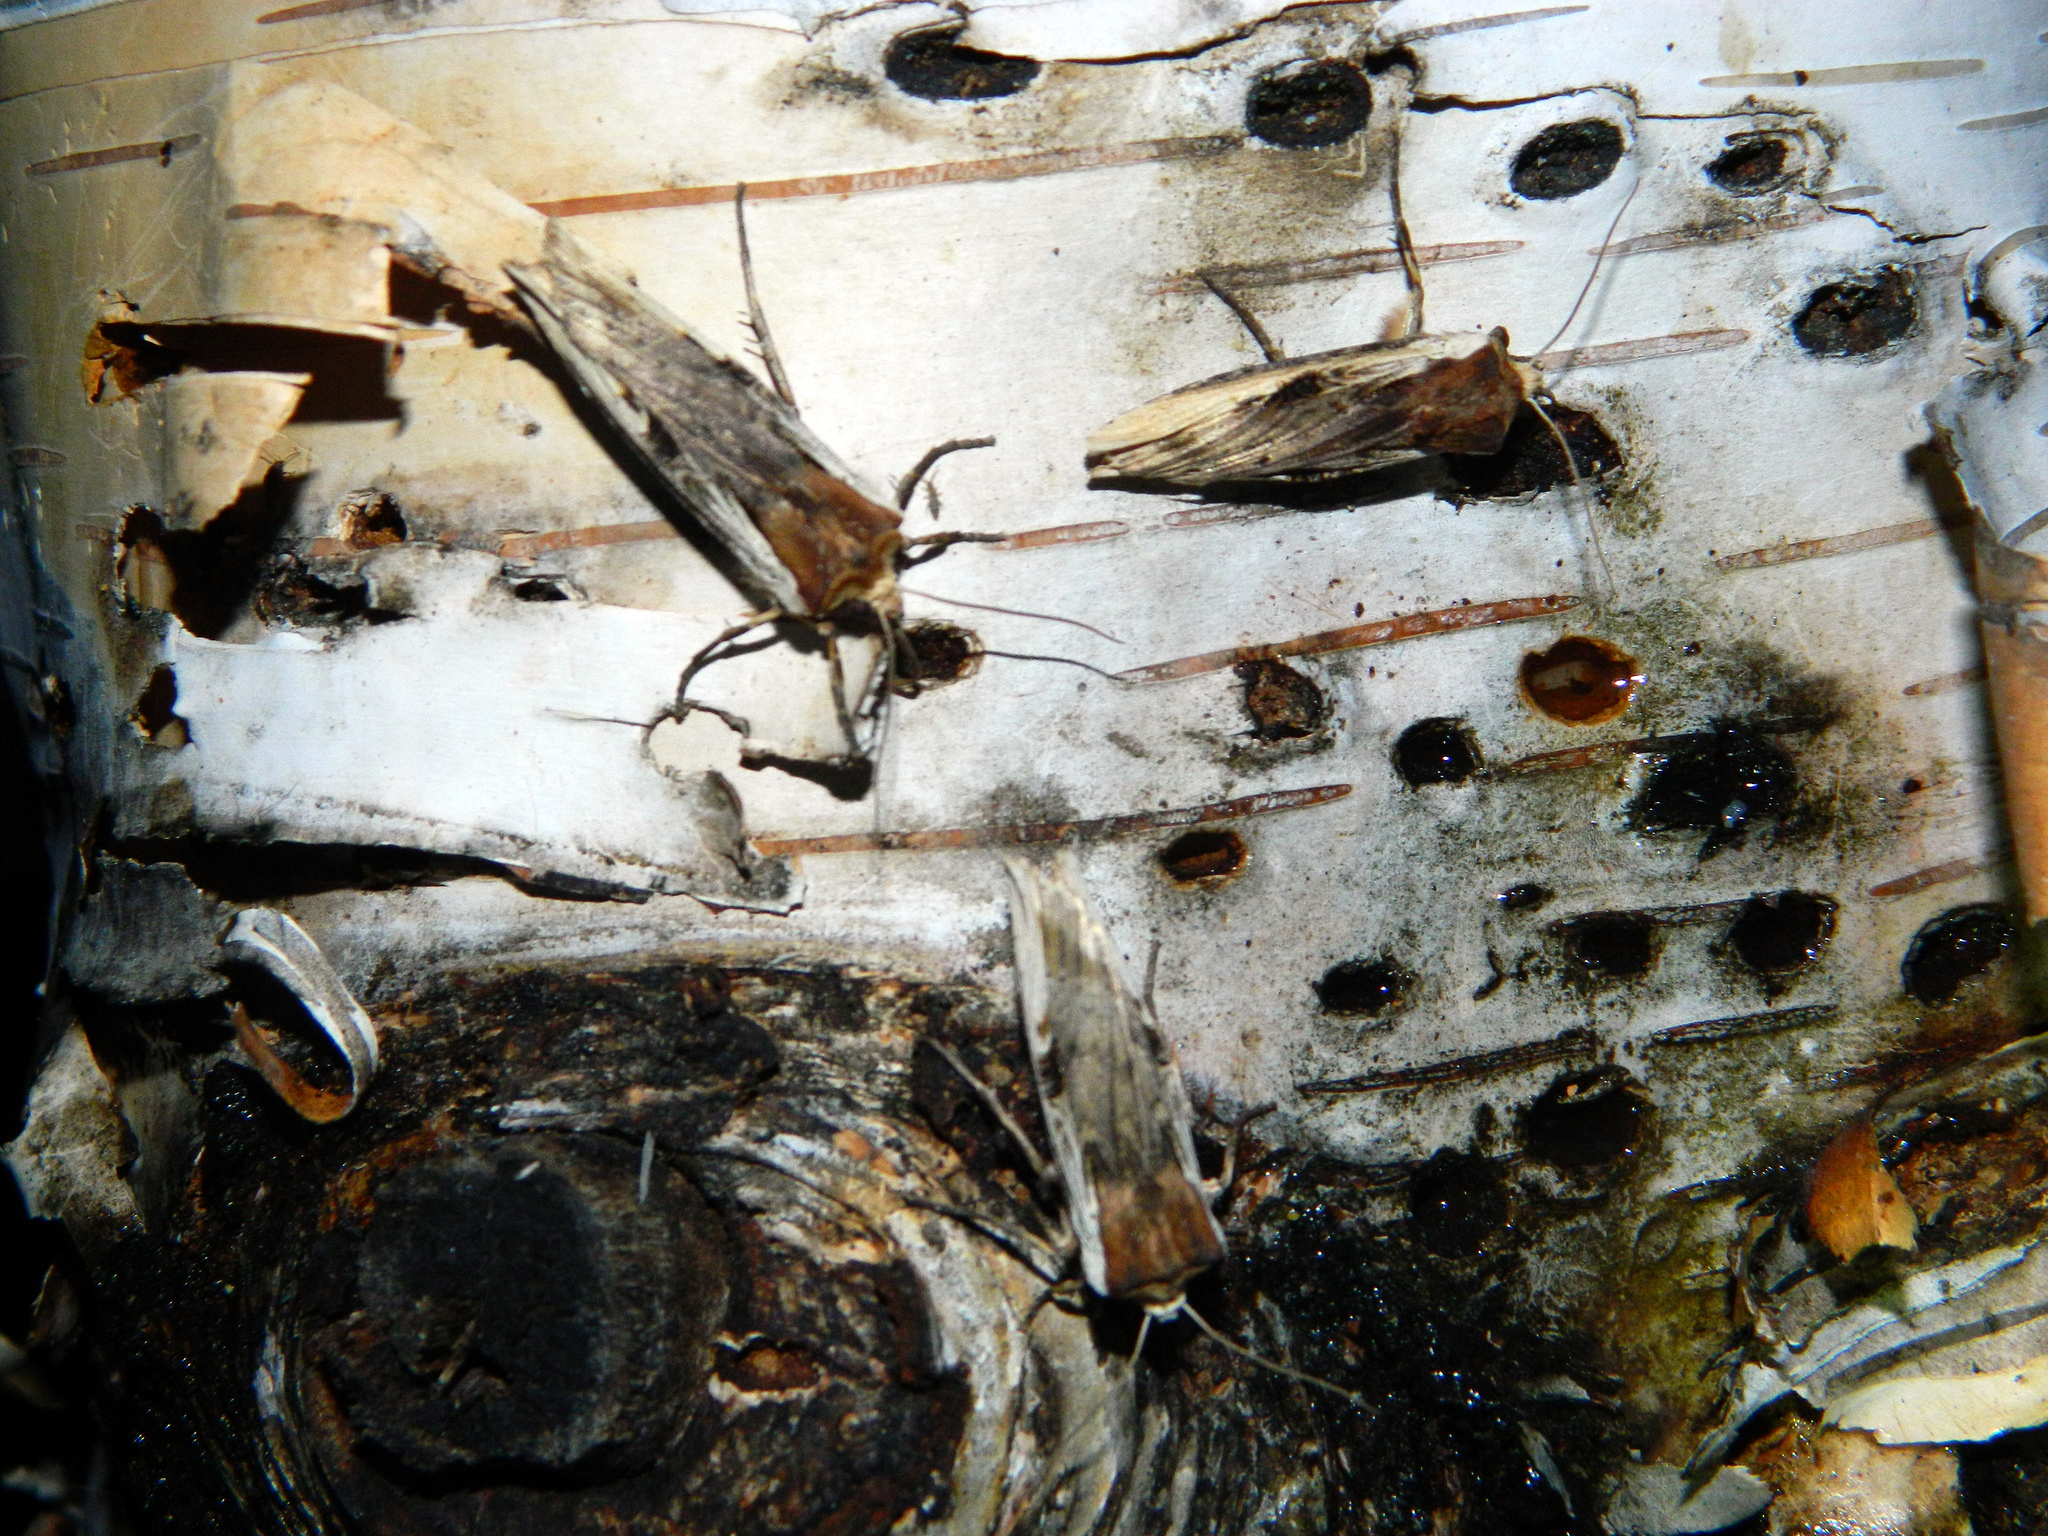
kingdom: Animalia
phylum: Arthropoda
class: Insecta
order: Lepidoptera
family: Noctuidae
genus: Xylena
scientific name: Xylena curvimacula
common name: Dot-and-dash swordgrass moth
